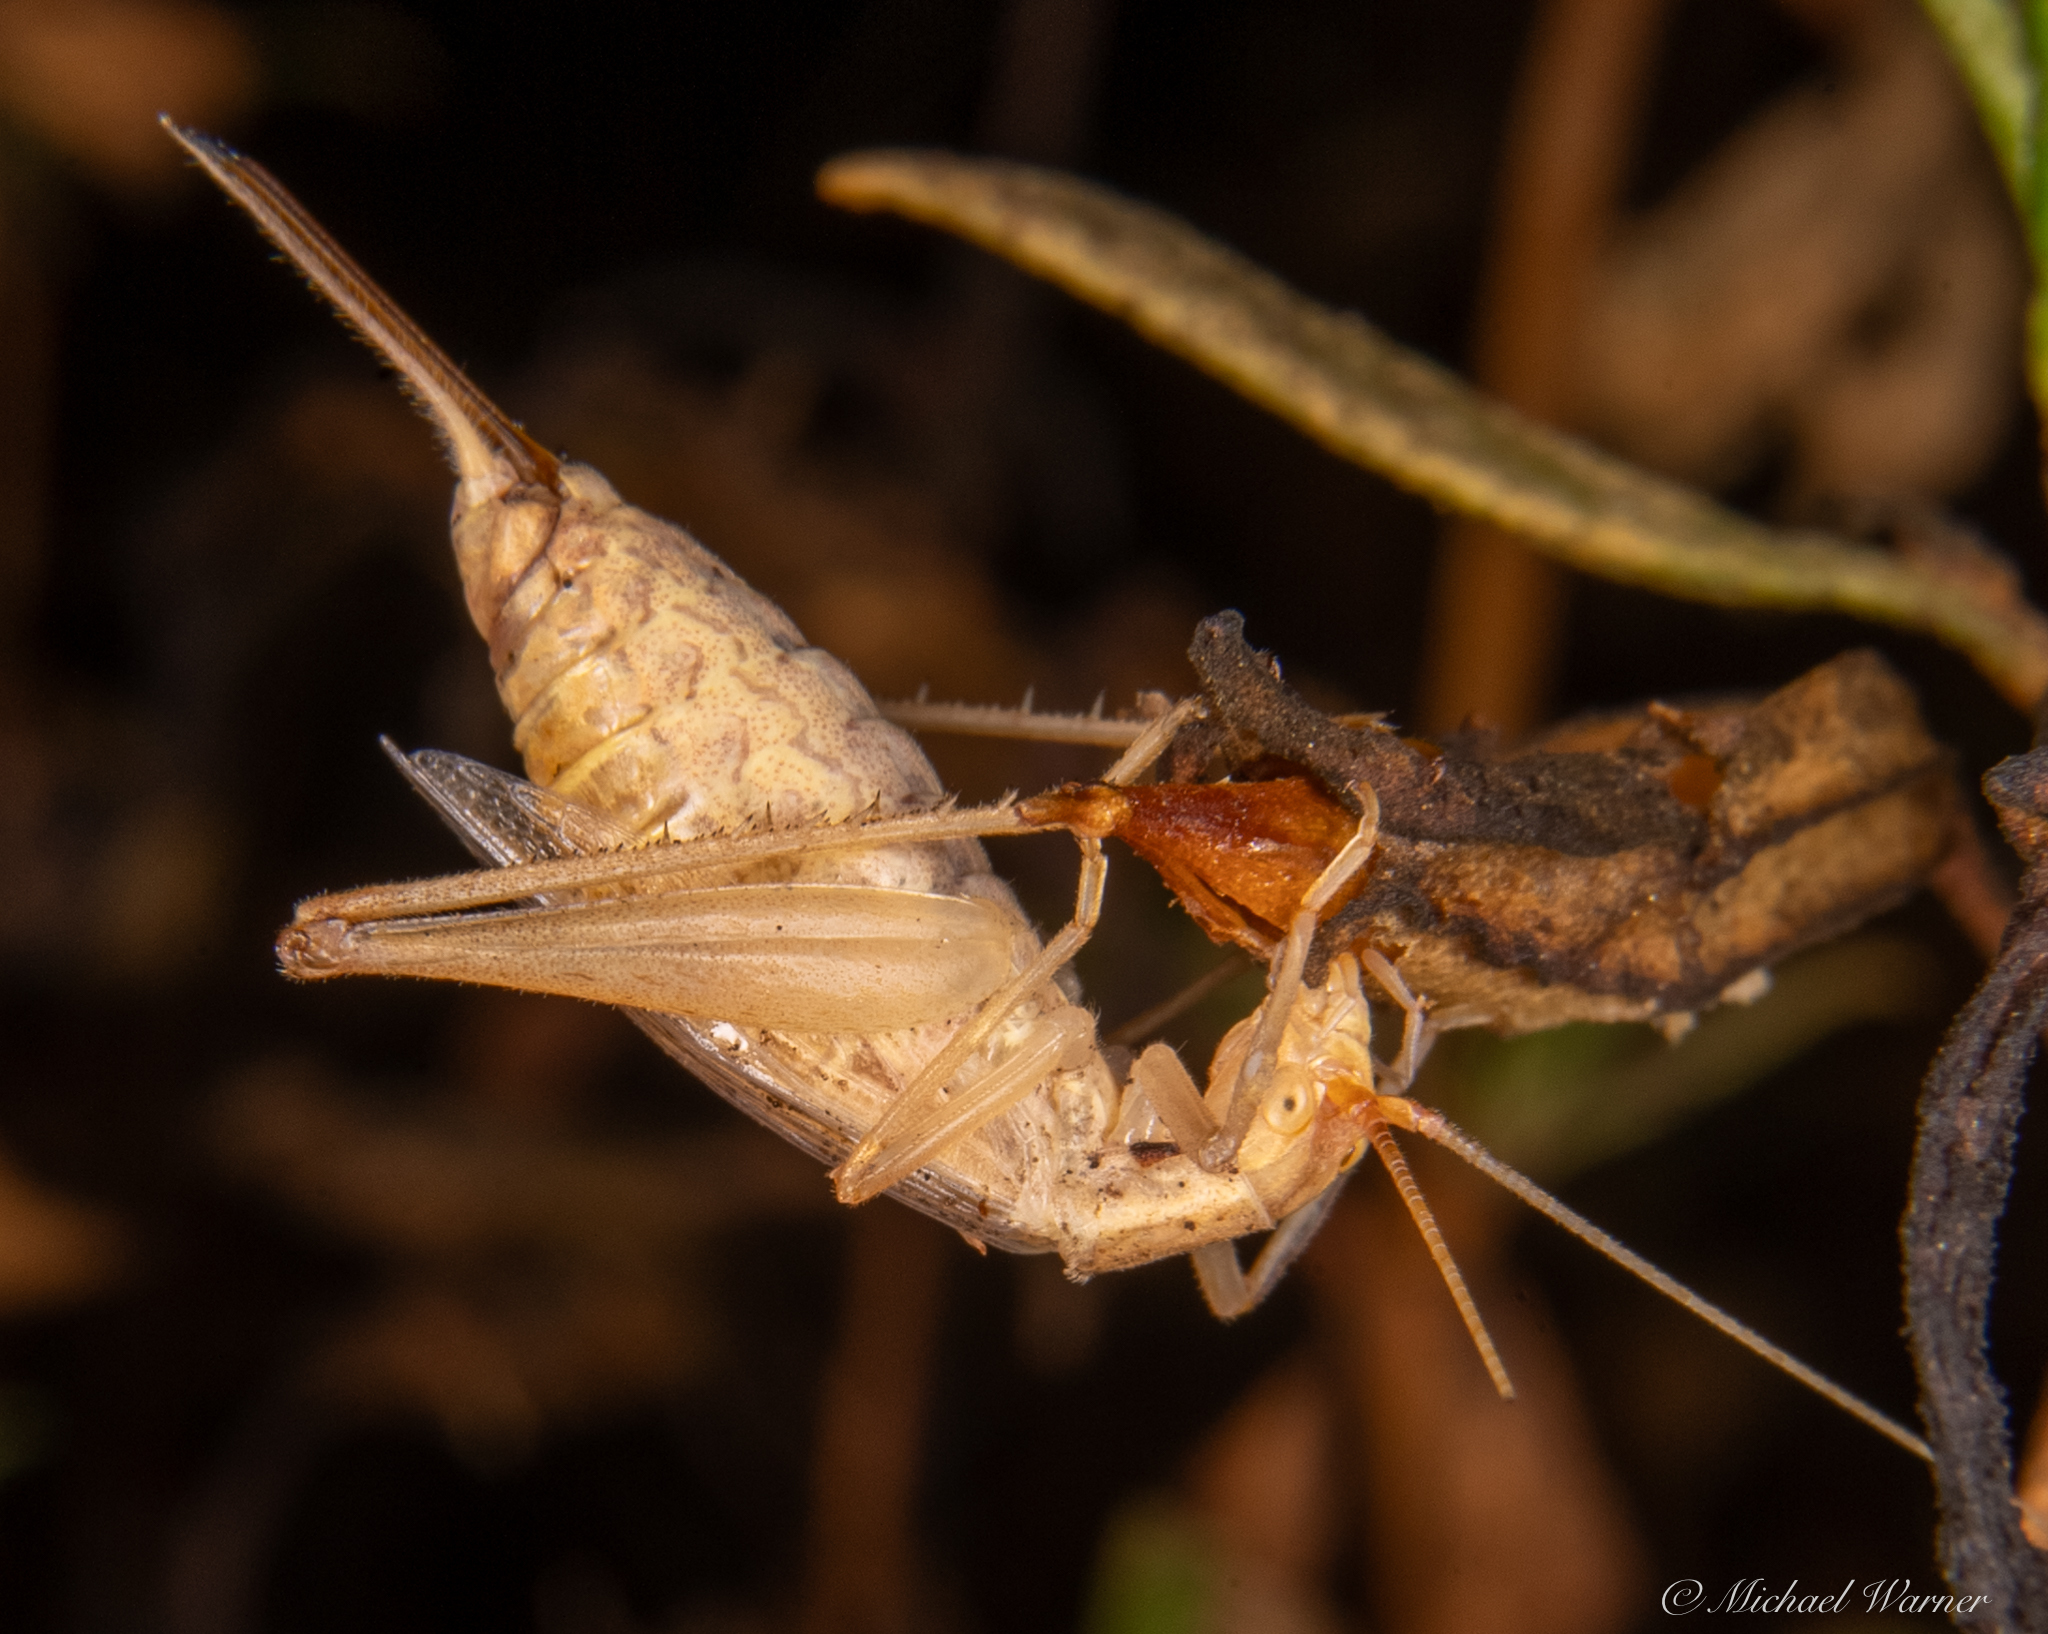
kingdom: Animalia
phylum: Arthropoda
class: Insecta
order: Orthoptera
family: Gryllidae
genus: Oecanthus
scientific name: Oecanthus californicus
